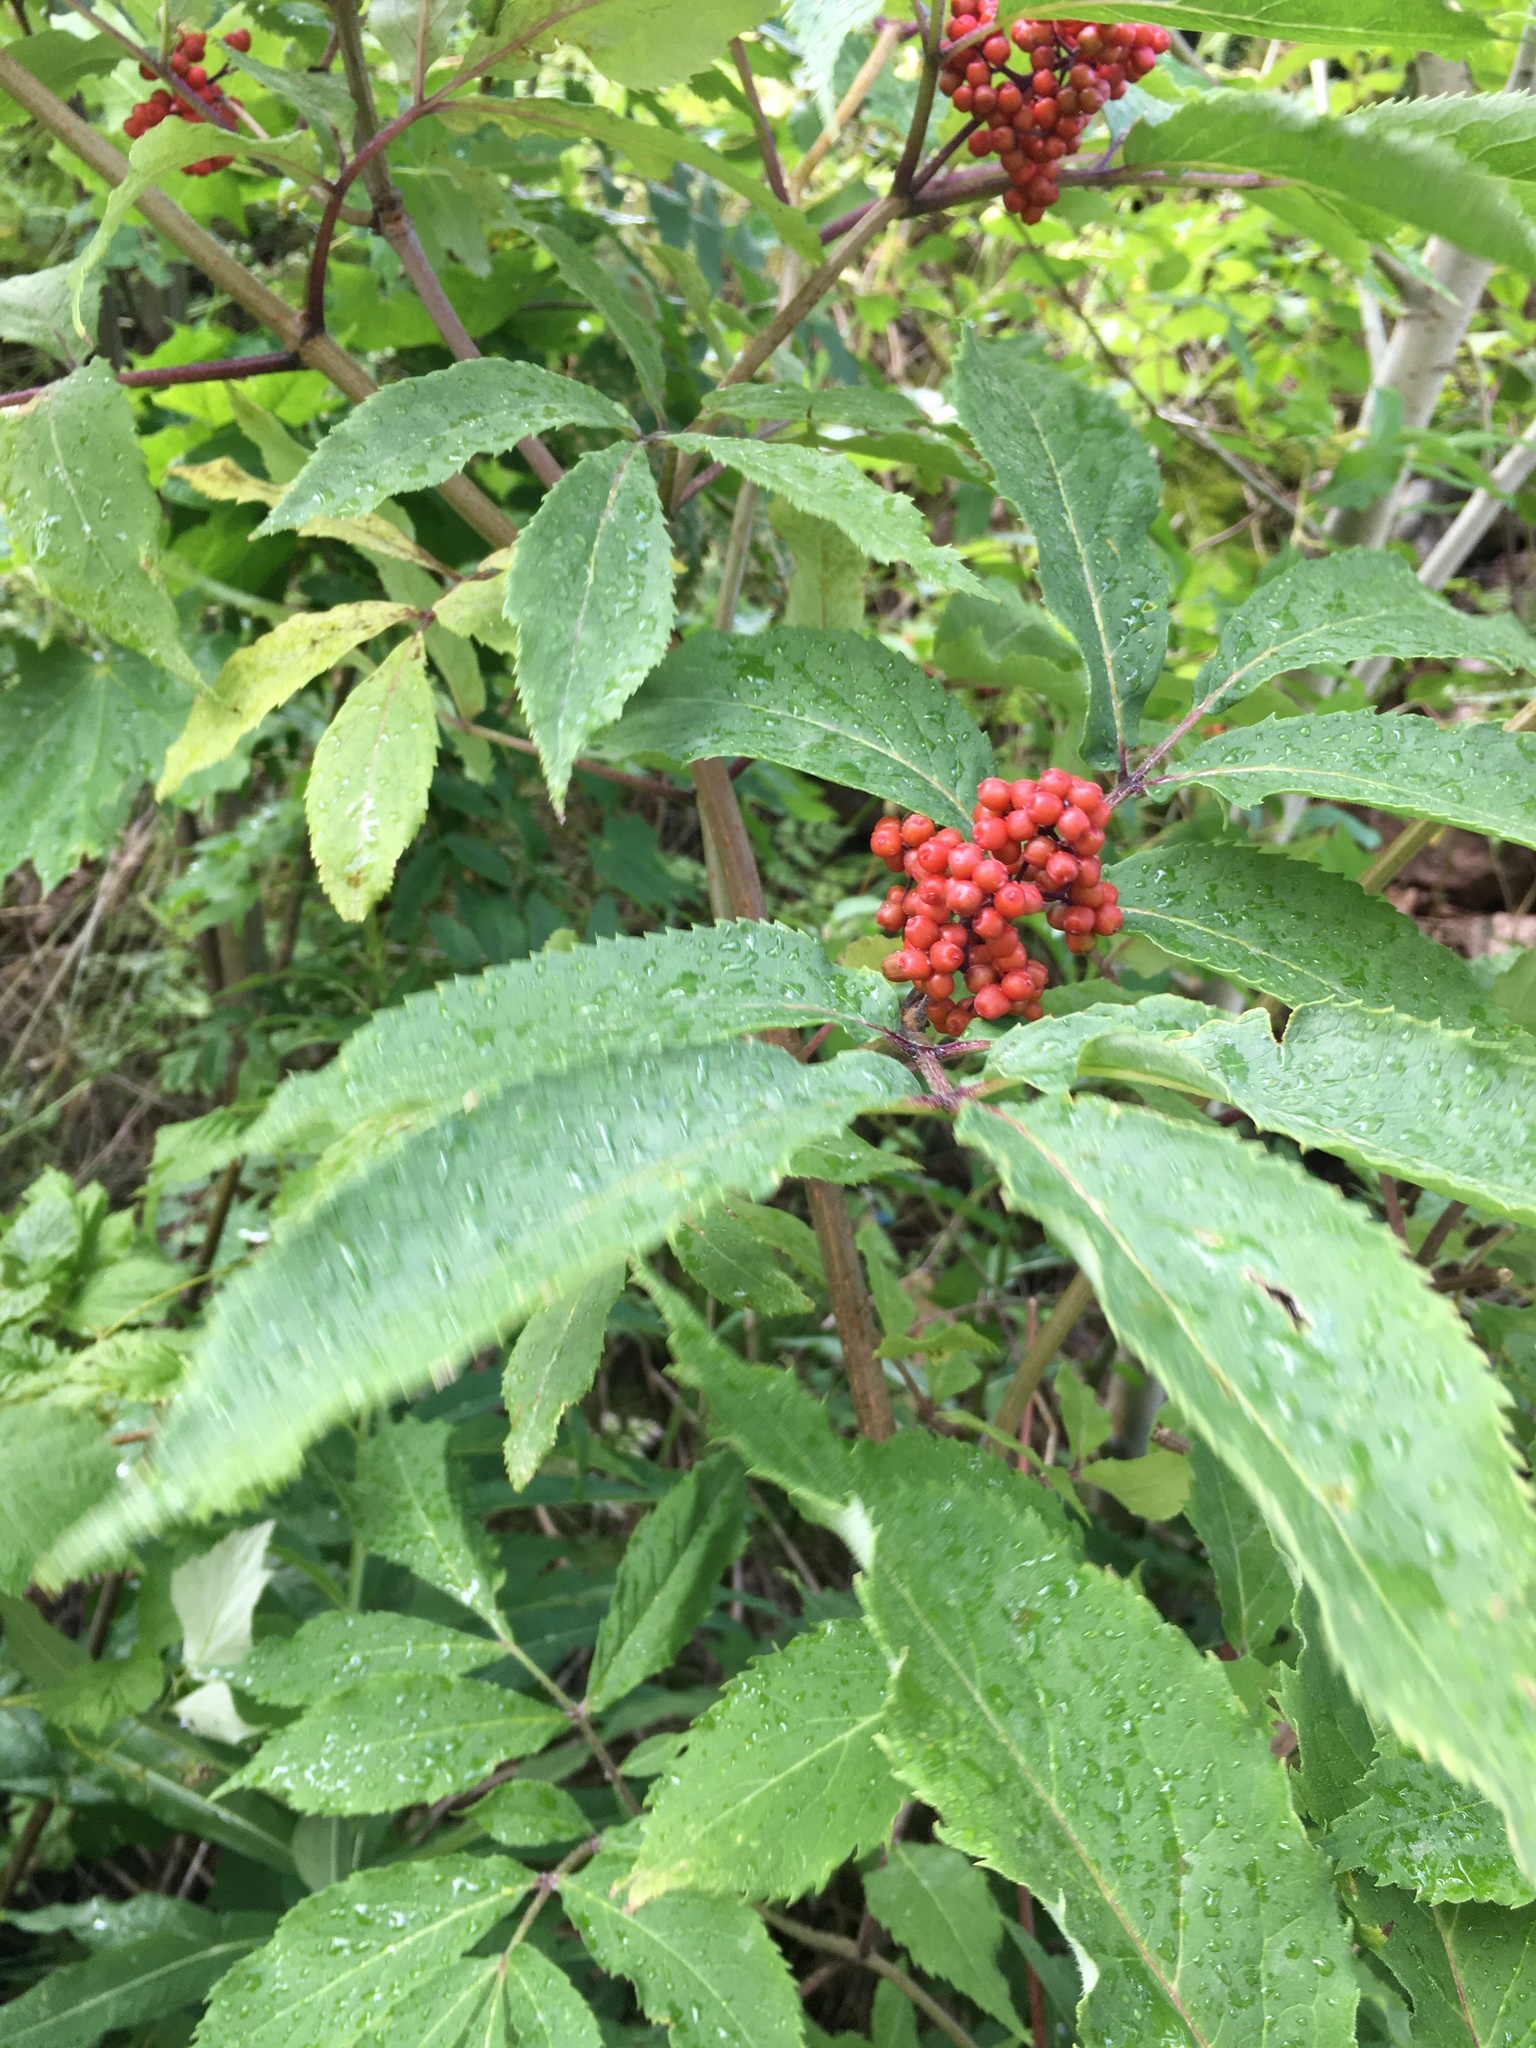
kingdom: Plantae
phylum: Tracheophyta
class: Magnoliopsida
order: Dipsacales
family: Viburnaceae
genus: Sambucus
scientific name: Sambucus racemosa
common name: Red-berried elder
